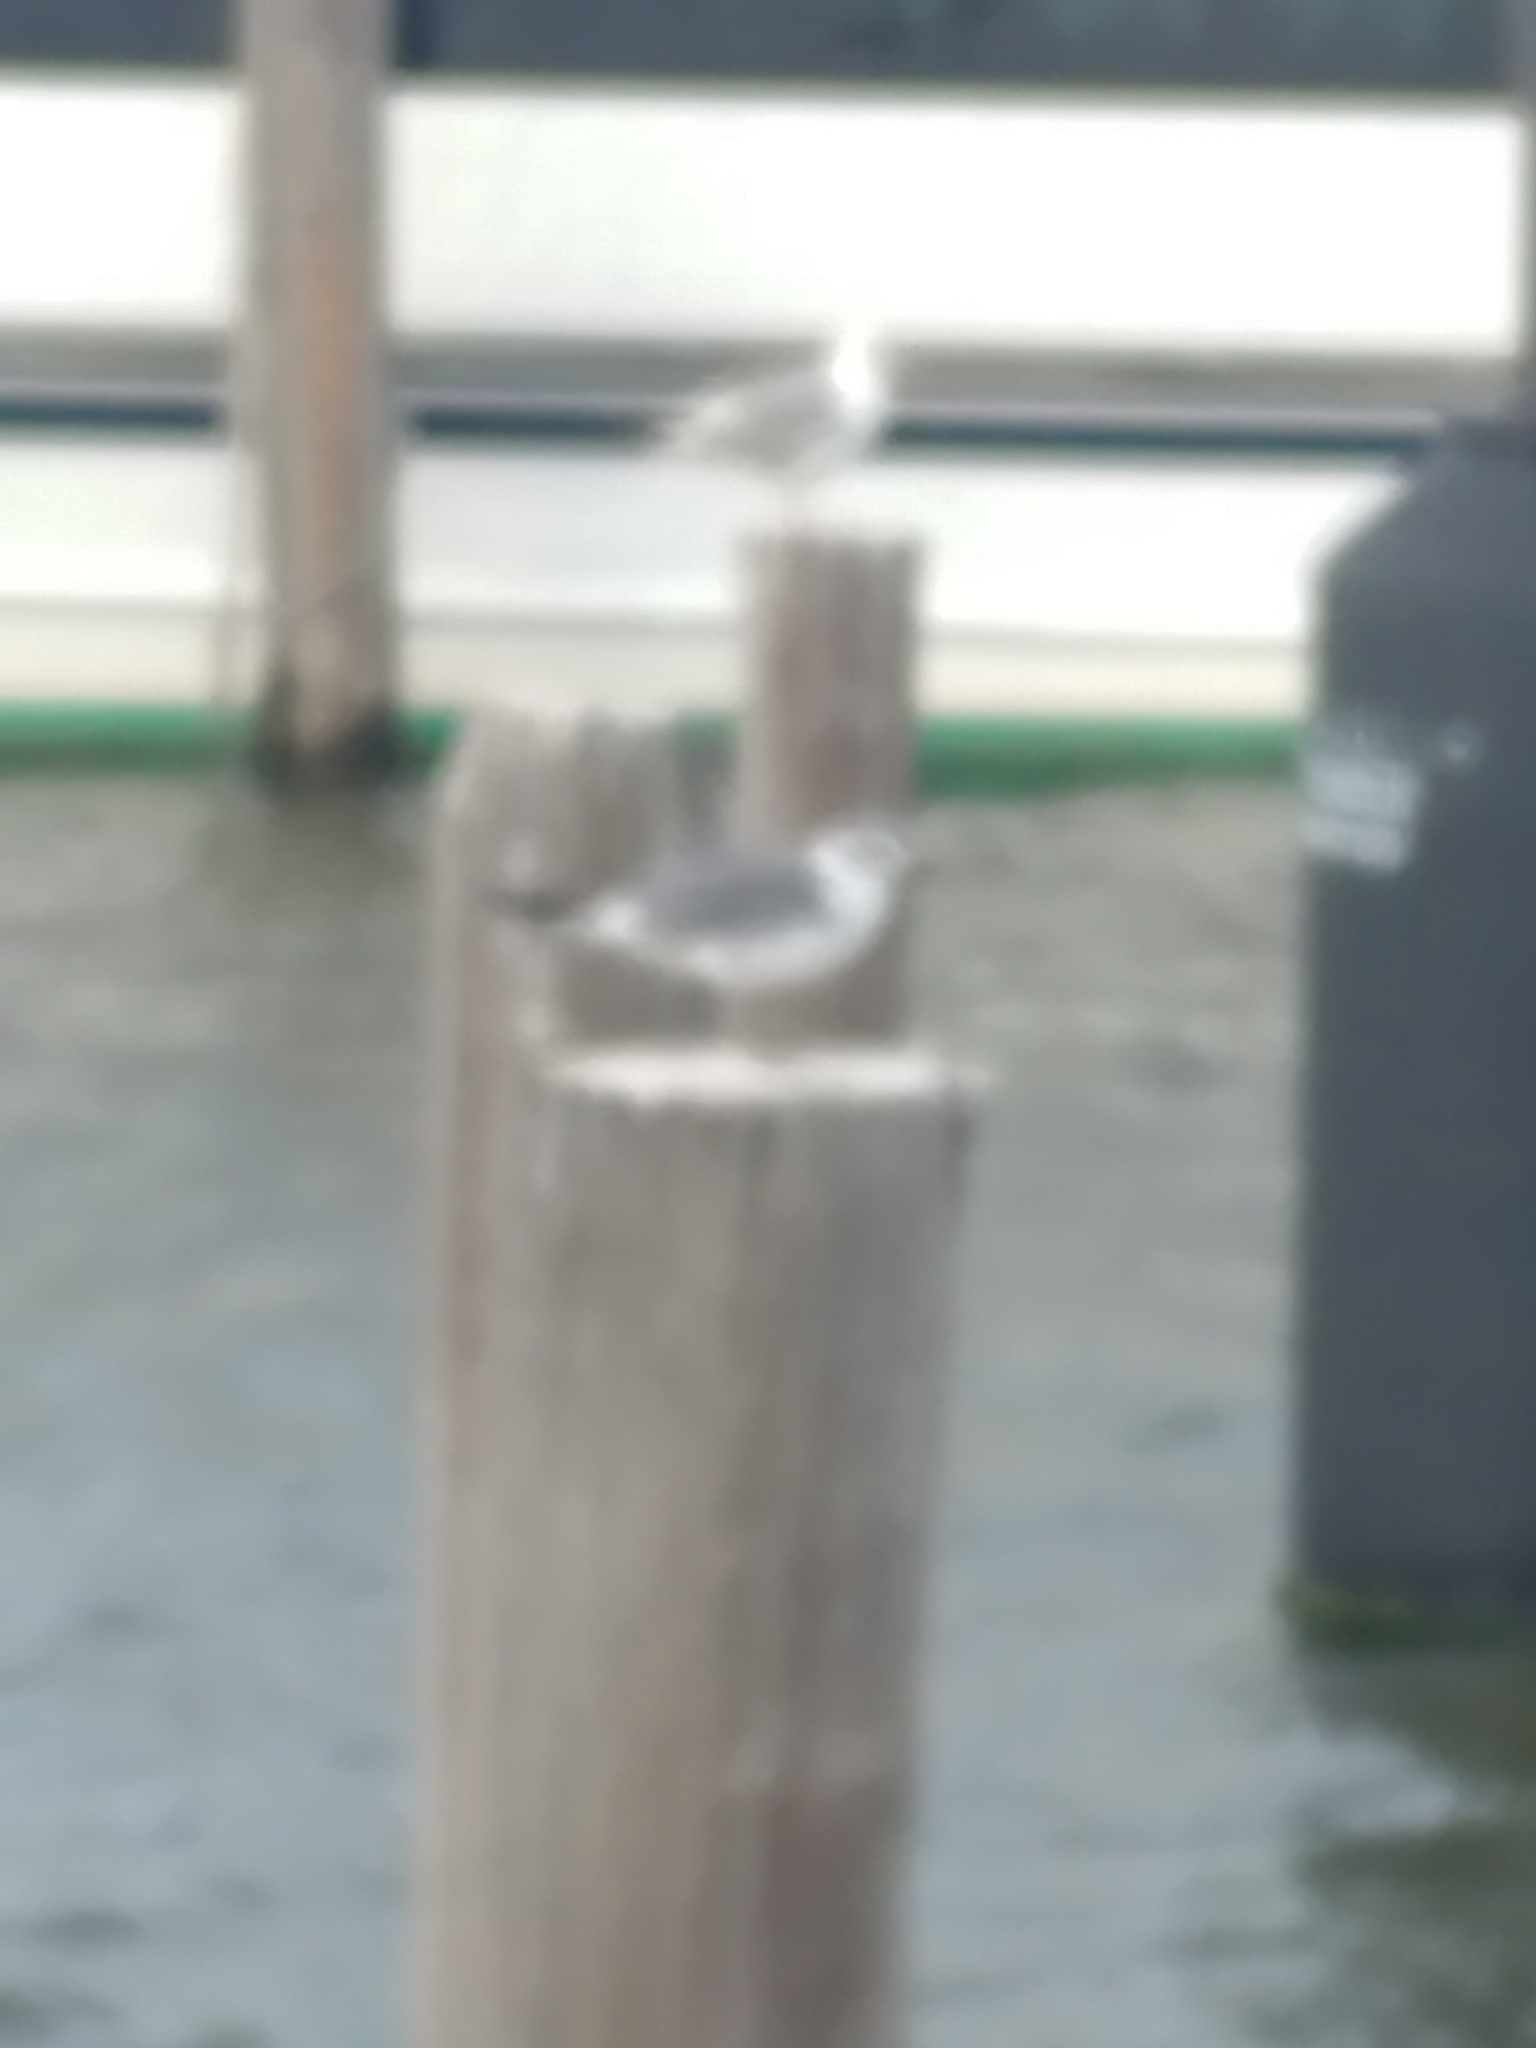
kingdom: Animalia
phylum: Chordata
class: Aves
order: Charadriiformes
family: Laridae
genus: Leucophaeus
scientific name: Leucophaeus atricilla
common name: Laughing gull
